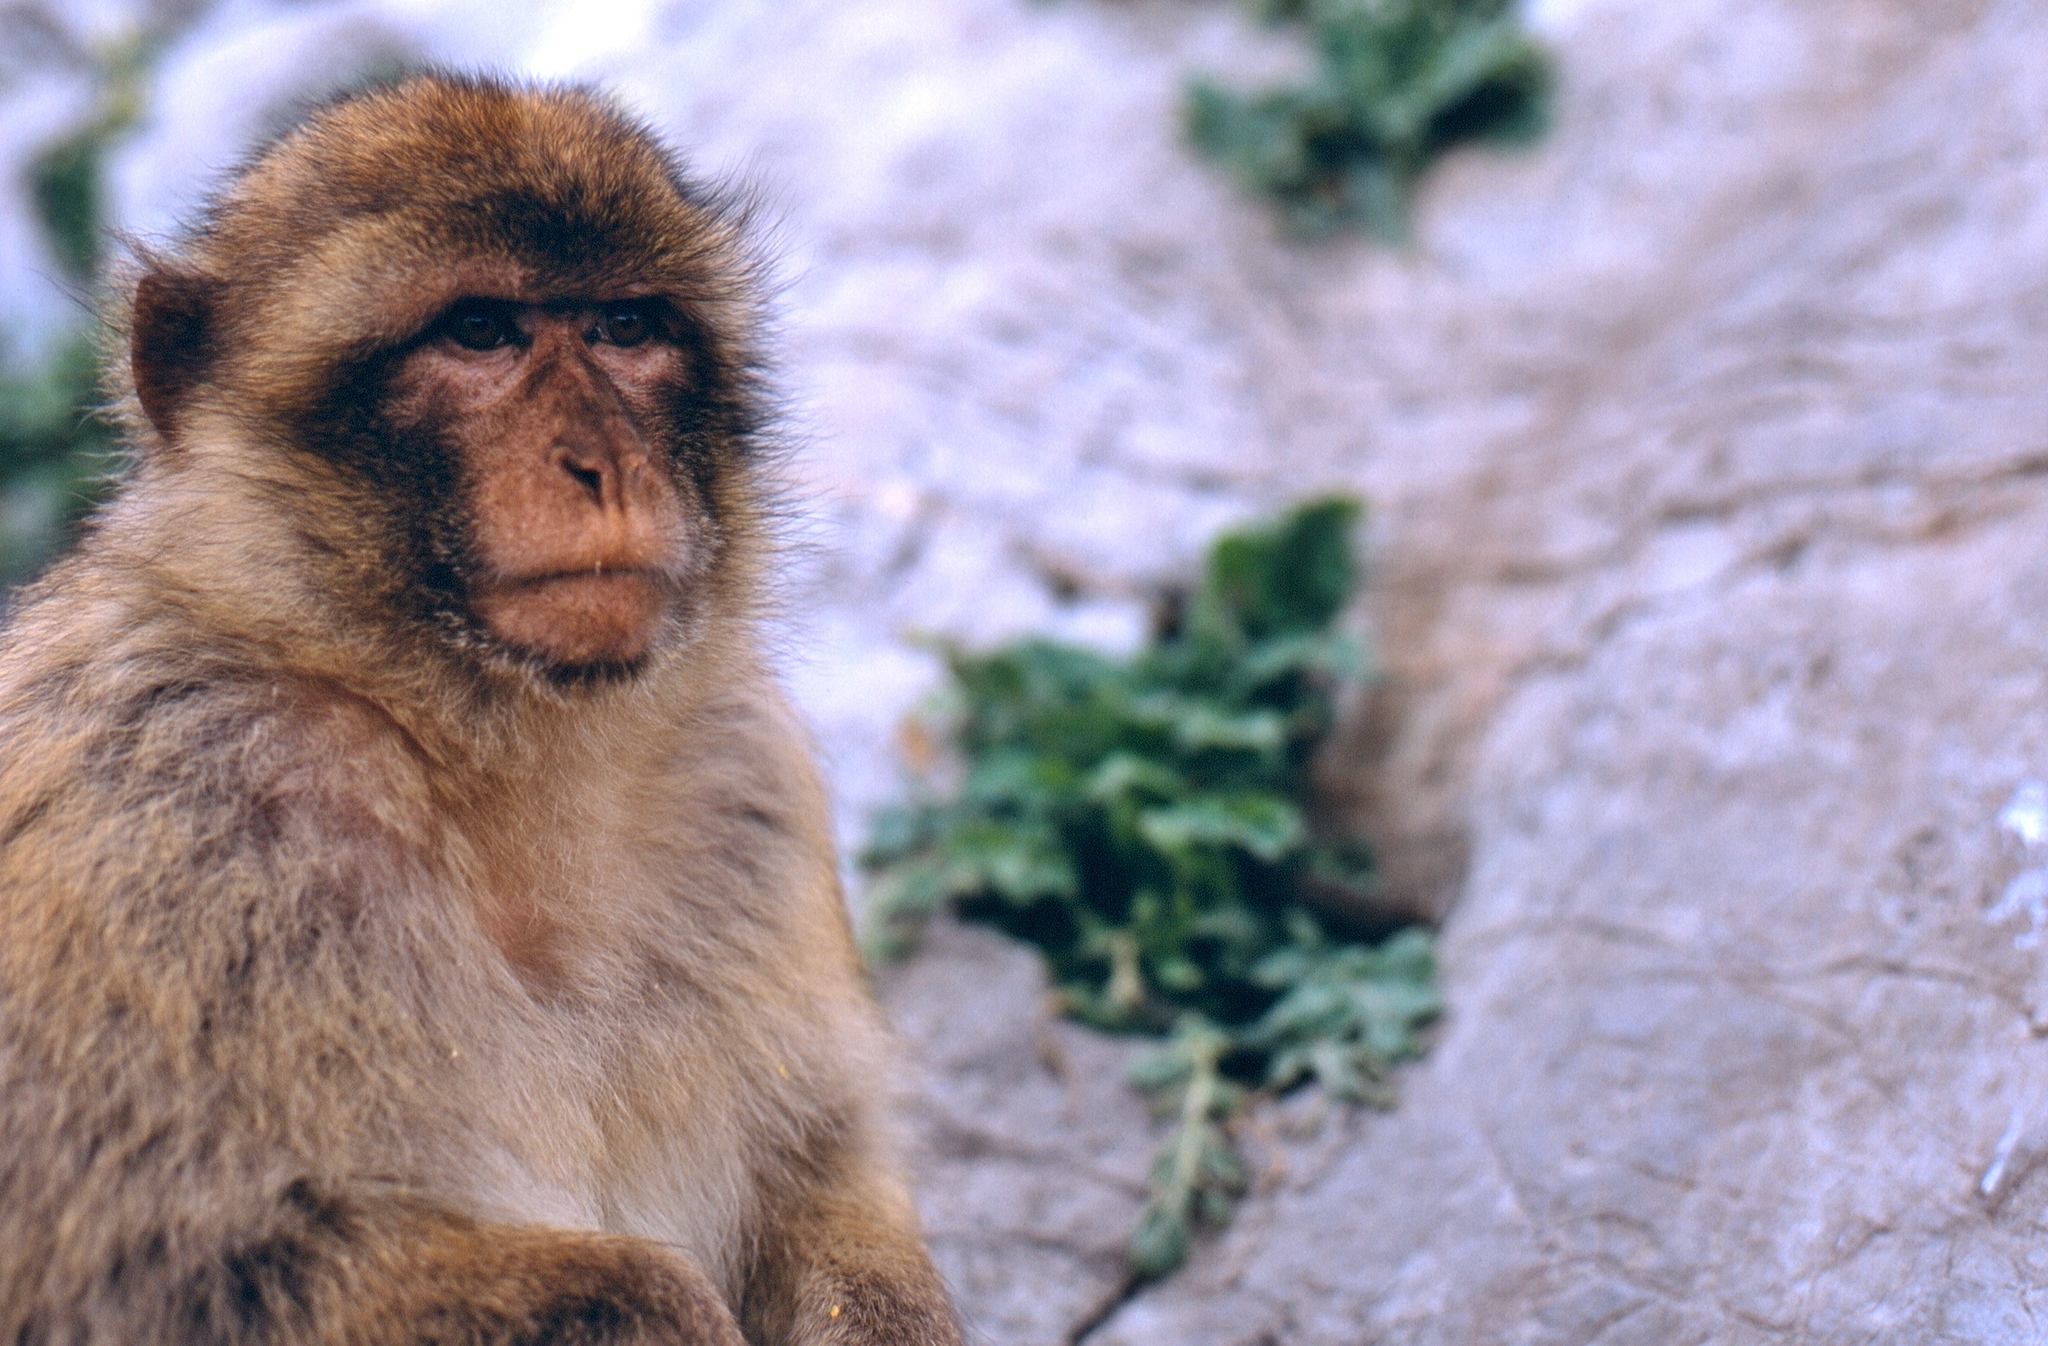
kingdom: Animalia
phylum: Chordata
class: Mammalia
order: Primates
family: Cercopithecidae
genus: Macaca
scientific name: Macaca sylvanus
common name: Barbary macaque
